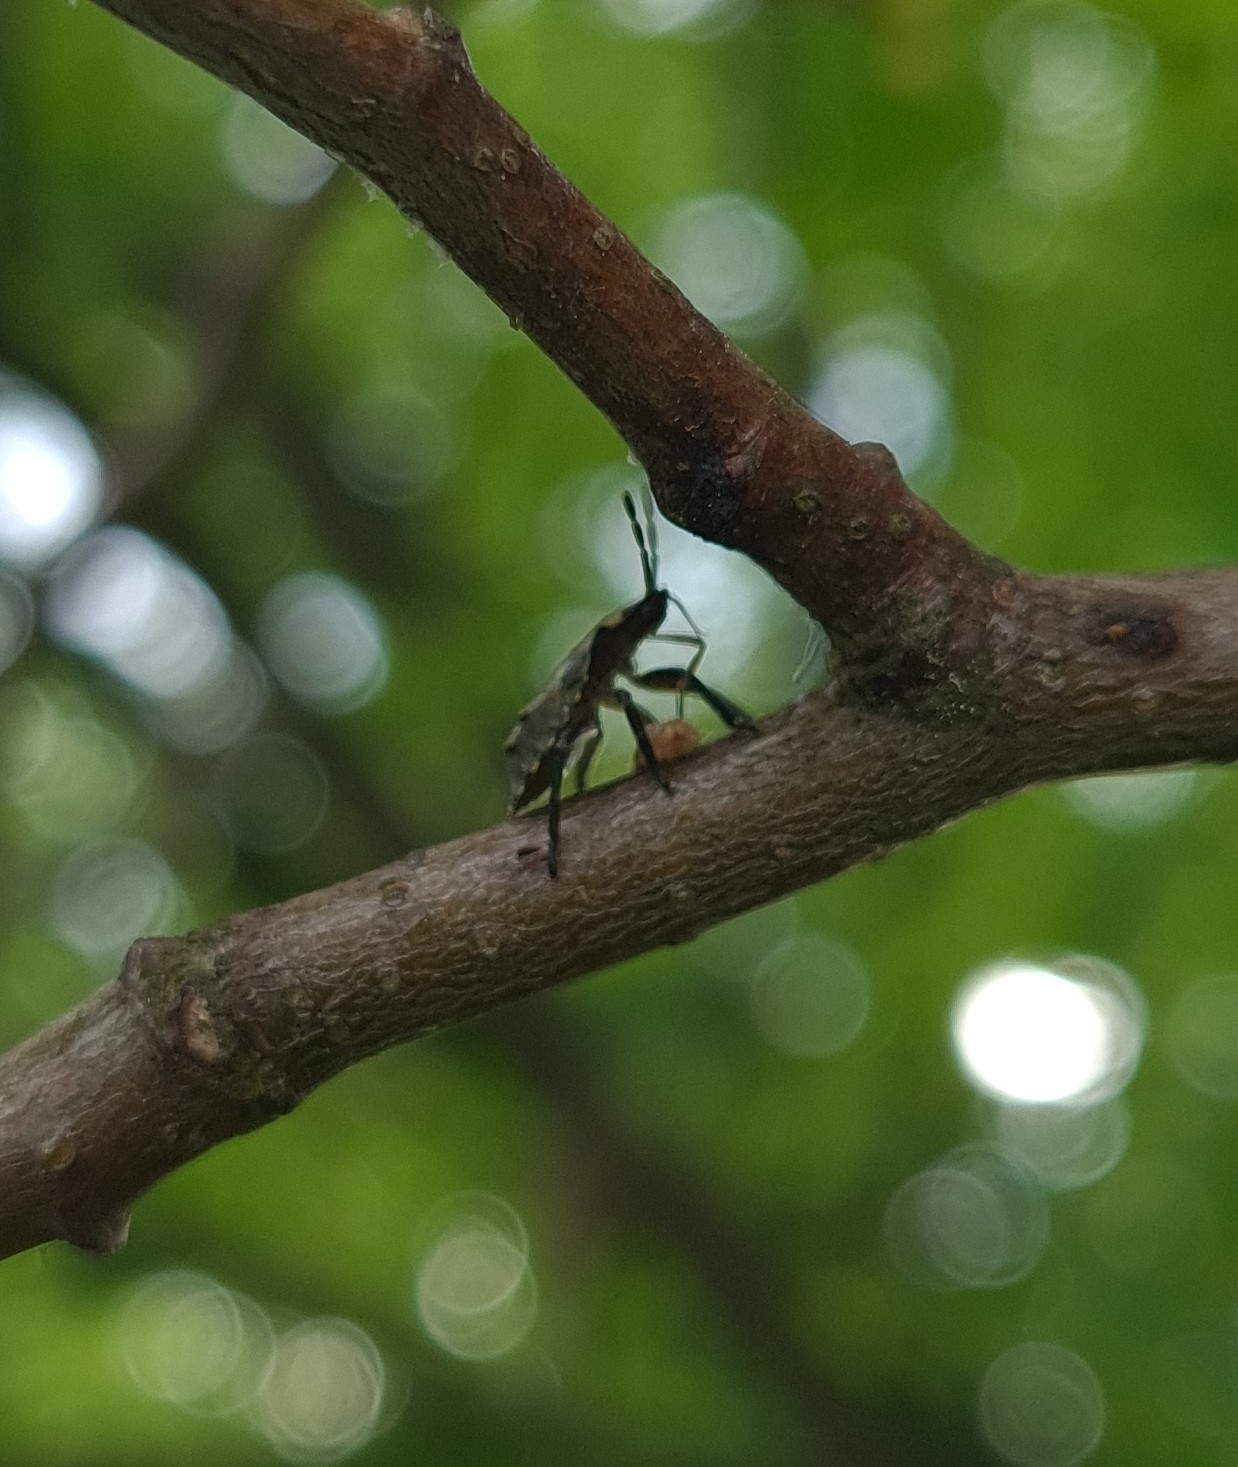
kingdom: Animalia
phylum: Arthropoda
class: Insecta
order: Hemiptera
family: Pentatomidae
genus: Pentatoma
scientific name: Pentatoma rufipes
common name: Forest bug
